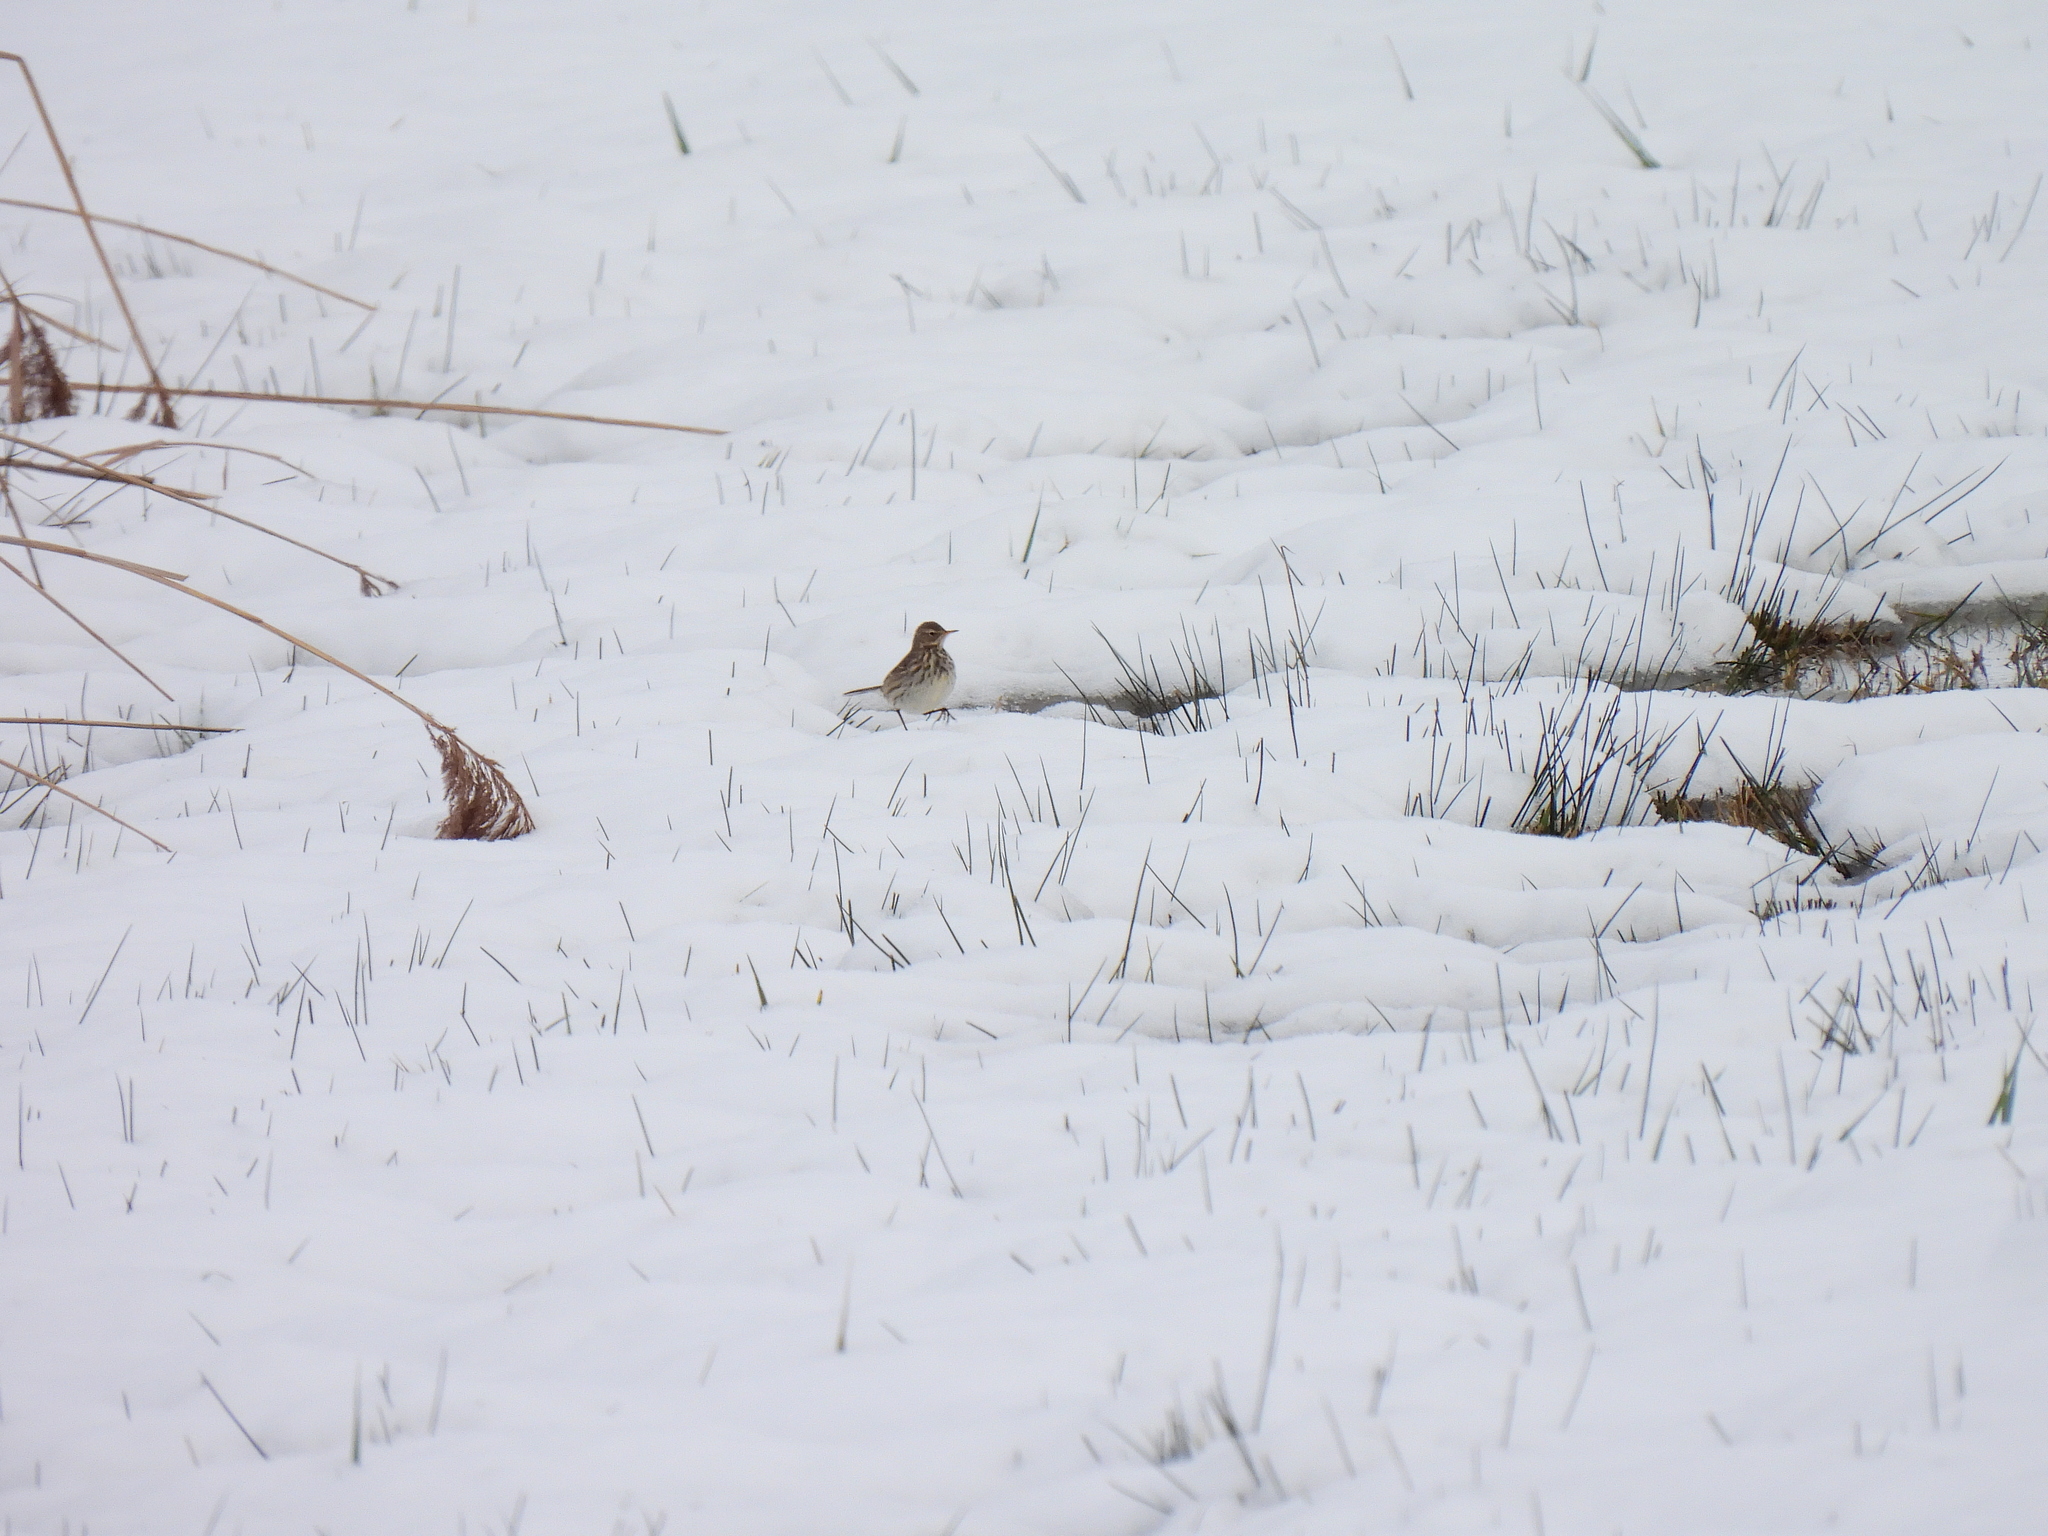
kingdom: Animalia
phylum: Chordata
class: Aves
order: Passeriformes
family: Motacillidae
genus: Anthus
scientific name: Anthus pratensis
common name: Meadow pipit
